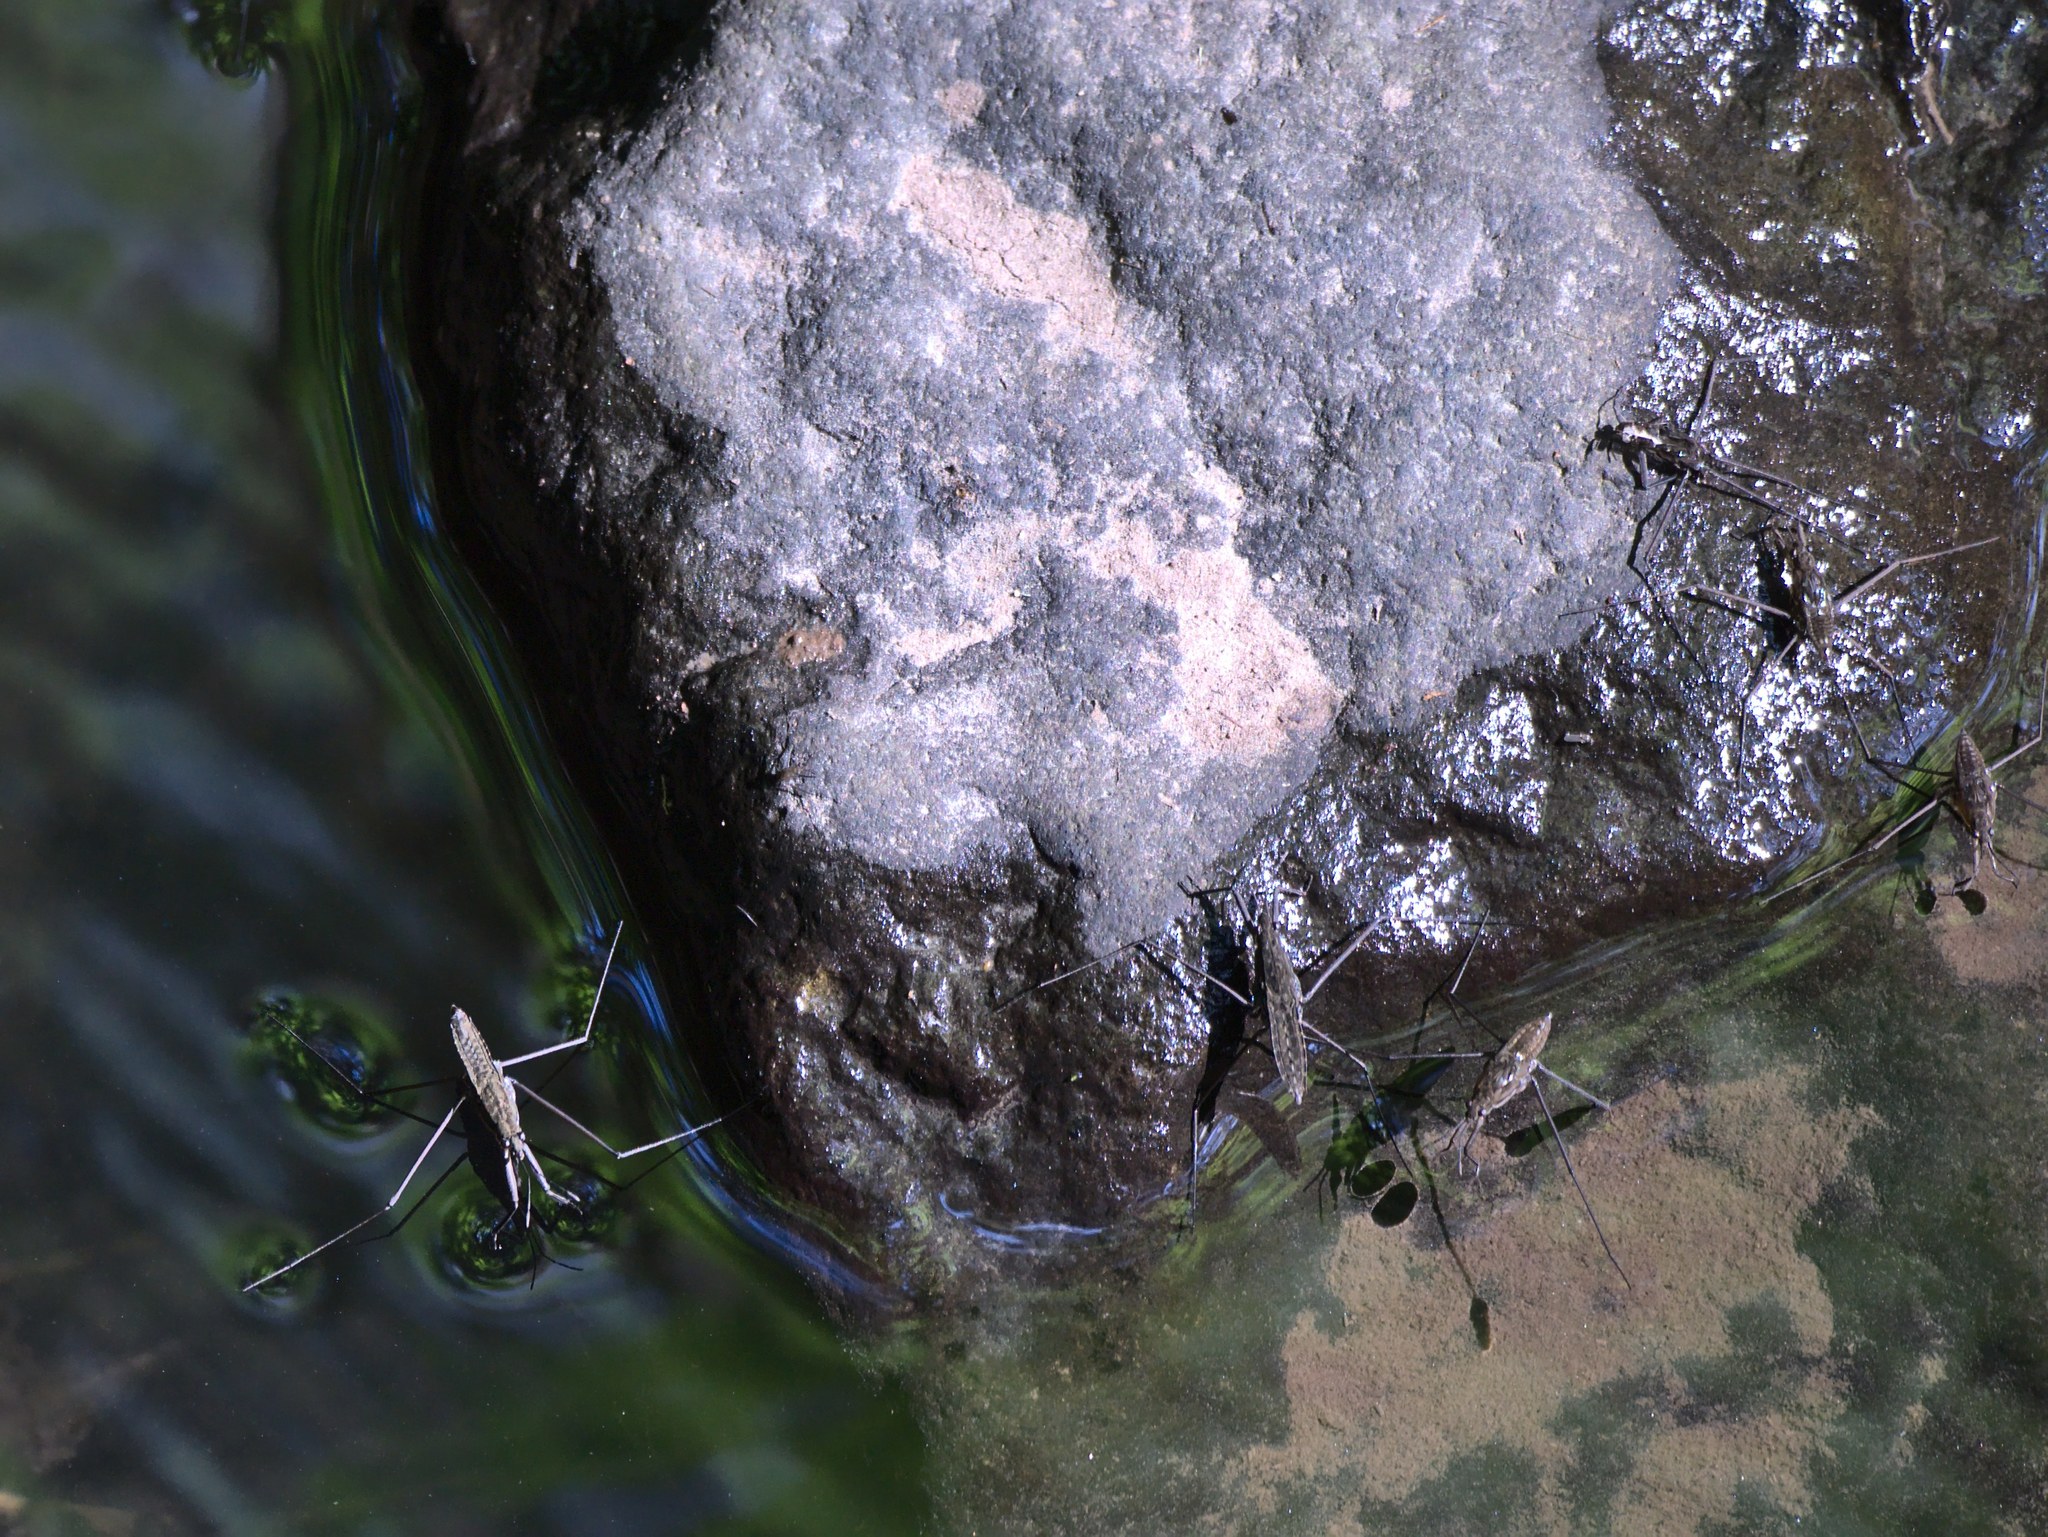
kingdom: Animalia
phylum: Arthropoda
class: Insecta
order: Hemiptera
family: Gerridae
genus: Aquarius
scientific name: Aquarius remigis
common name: Common water strider
